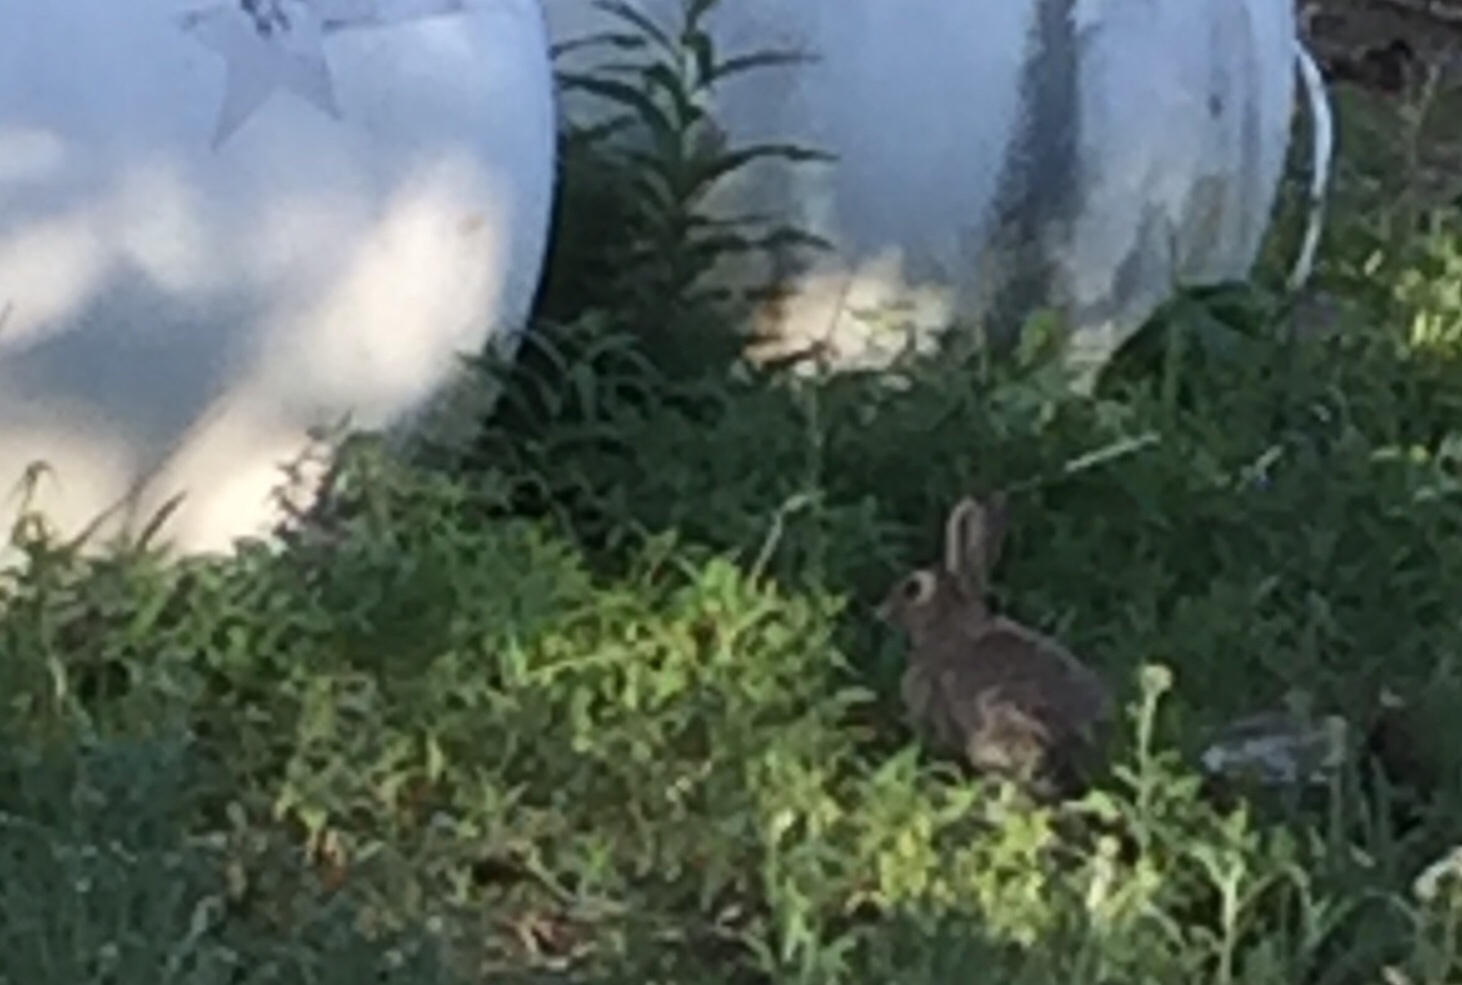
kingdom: Animalia
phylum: Chordata
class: Mammalia
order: Lagomorpha
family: Leporidae
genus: Sylvilagus
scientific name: Sylvilagus nuttallii
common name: Mountain cottontail
